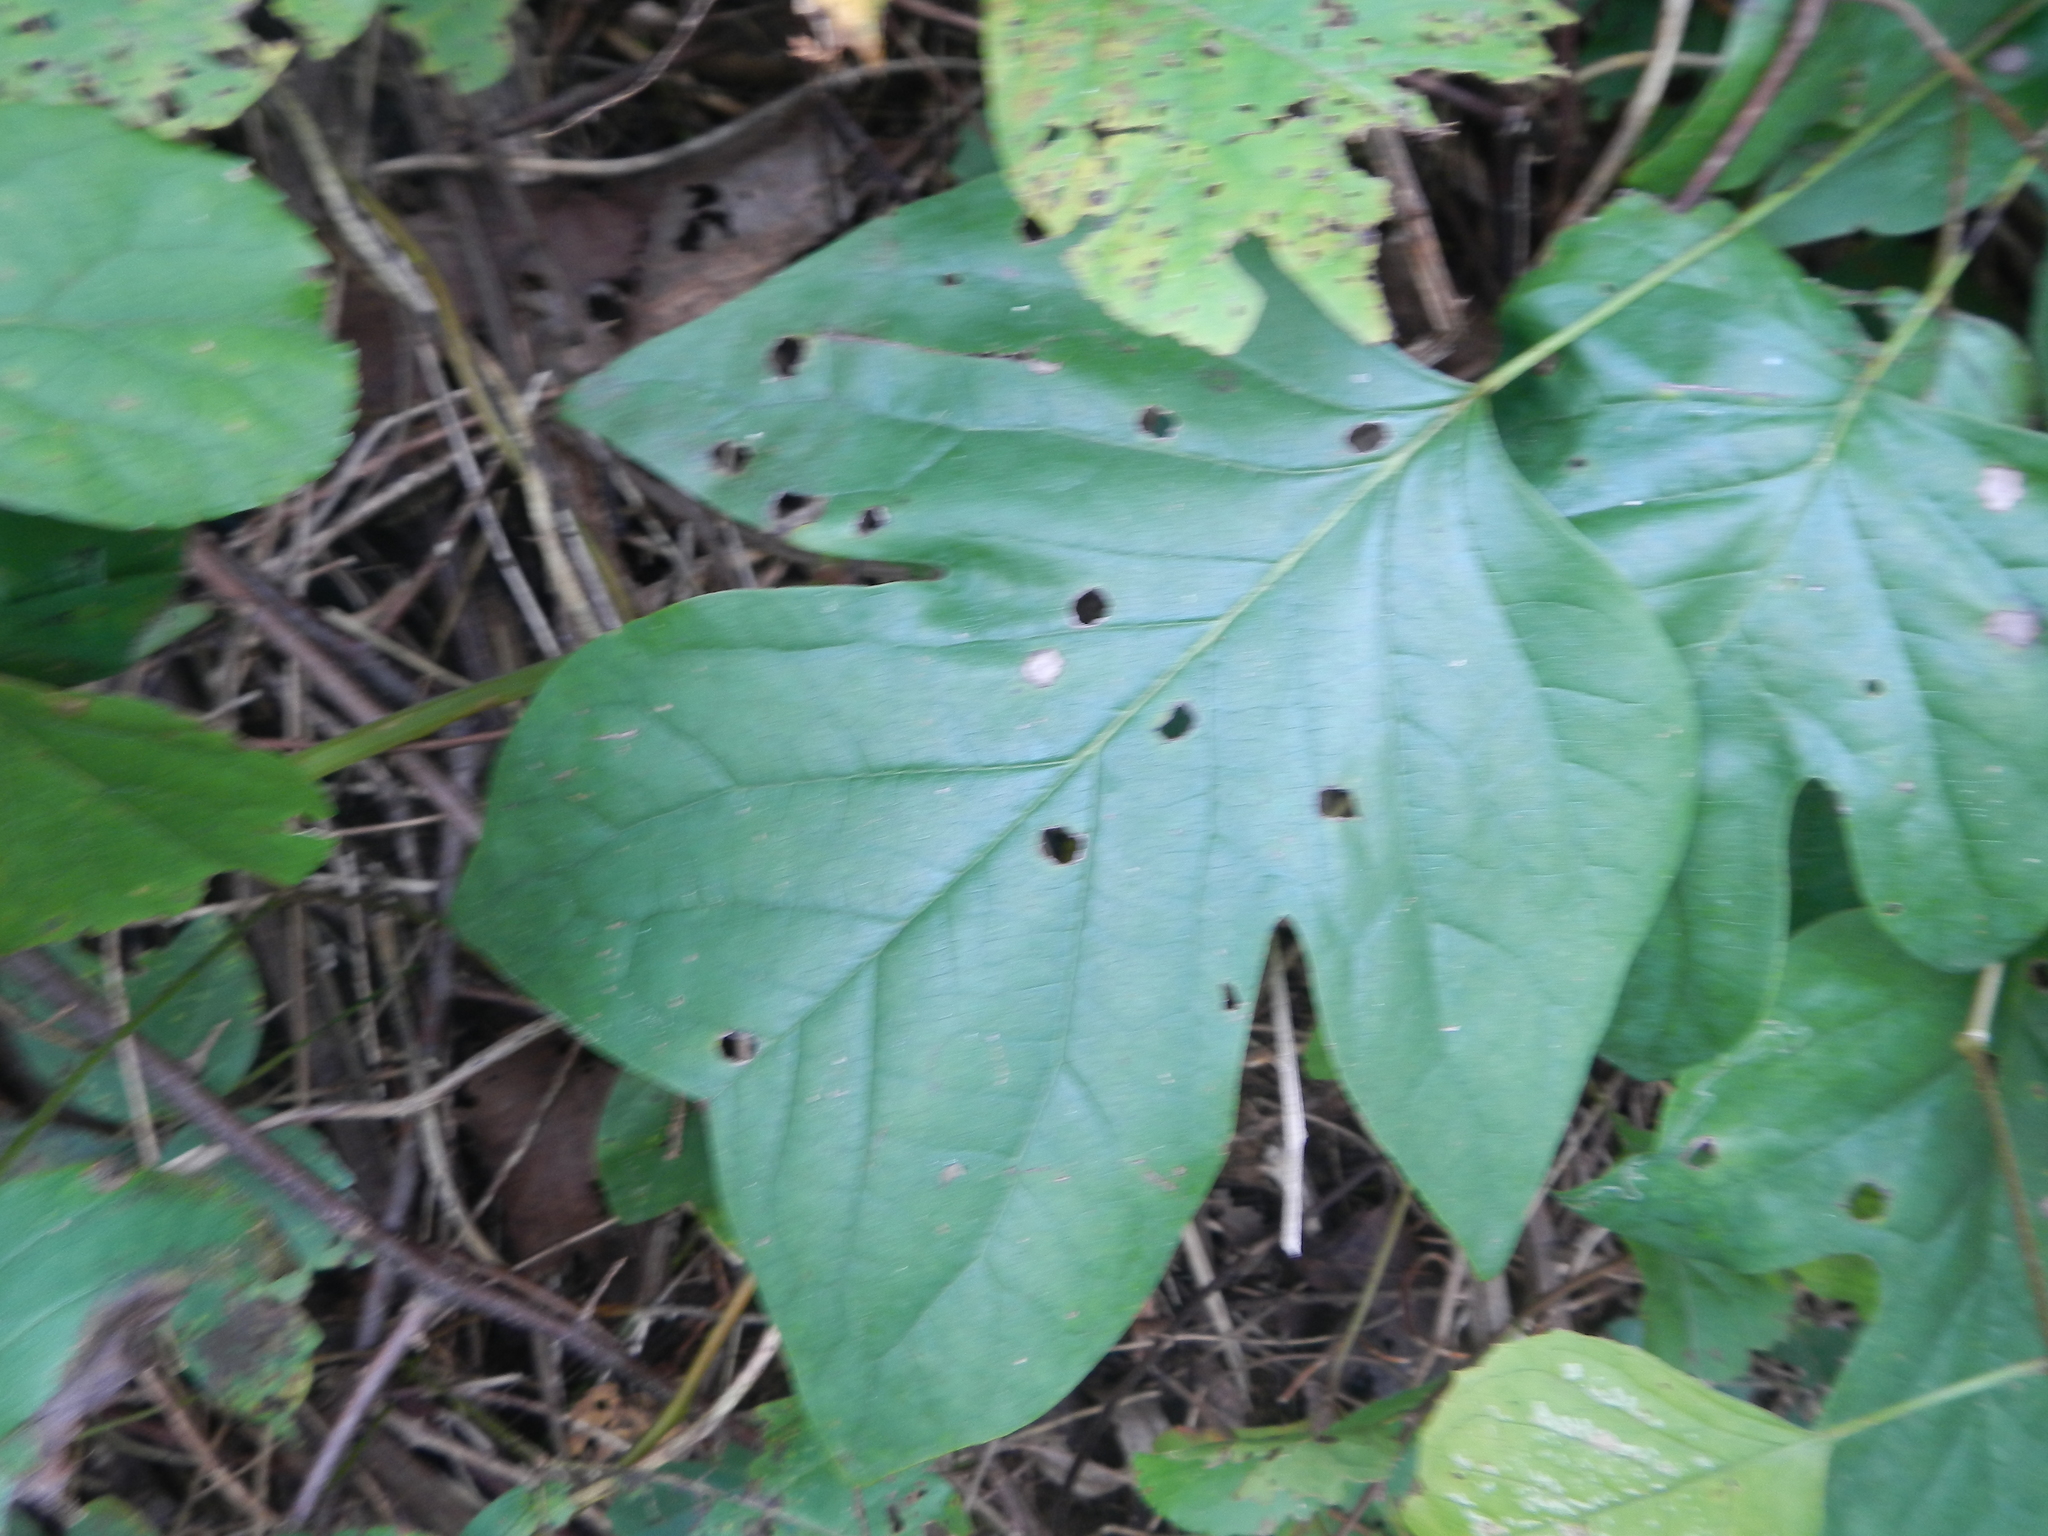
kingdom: Plantae
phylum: Tracheophyta
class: Magnoliopsida
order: Magnoliales
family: Magnoliaceae
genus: Liriodendron
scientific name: Liriodendron tulipifera
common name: Tulip tree
